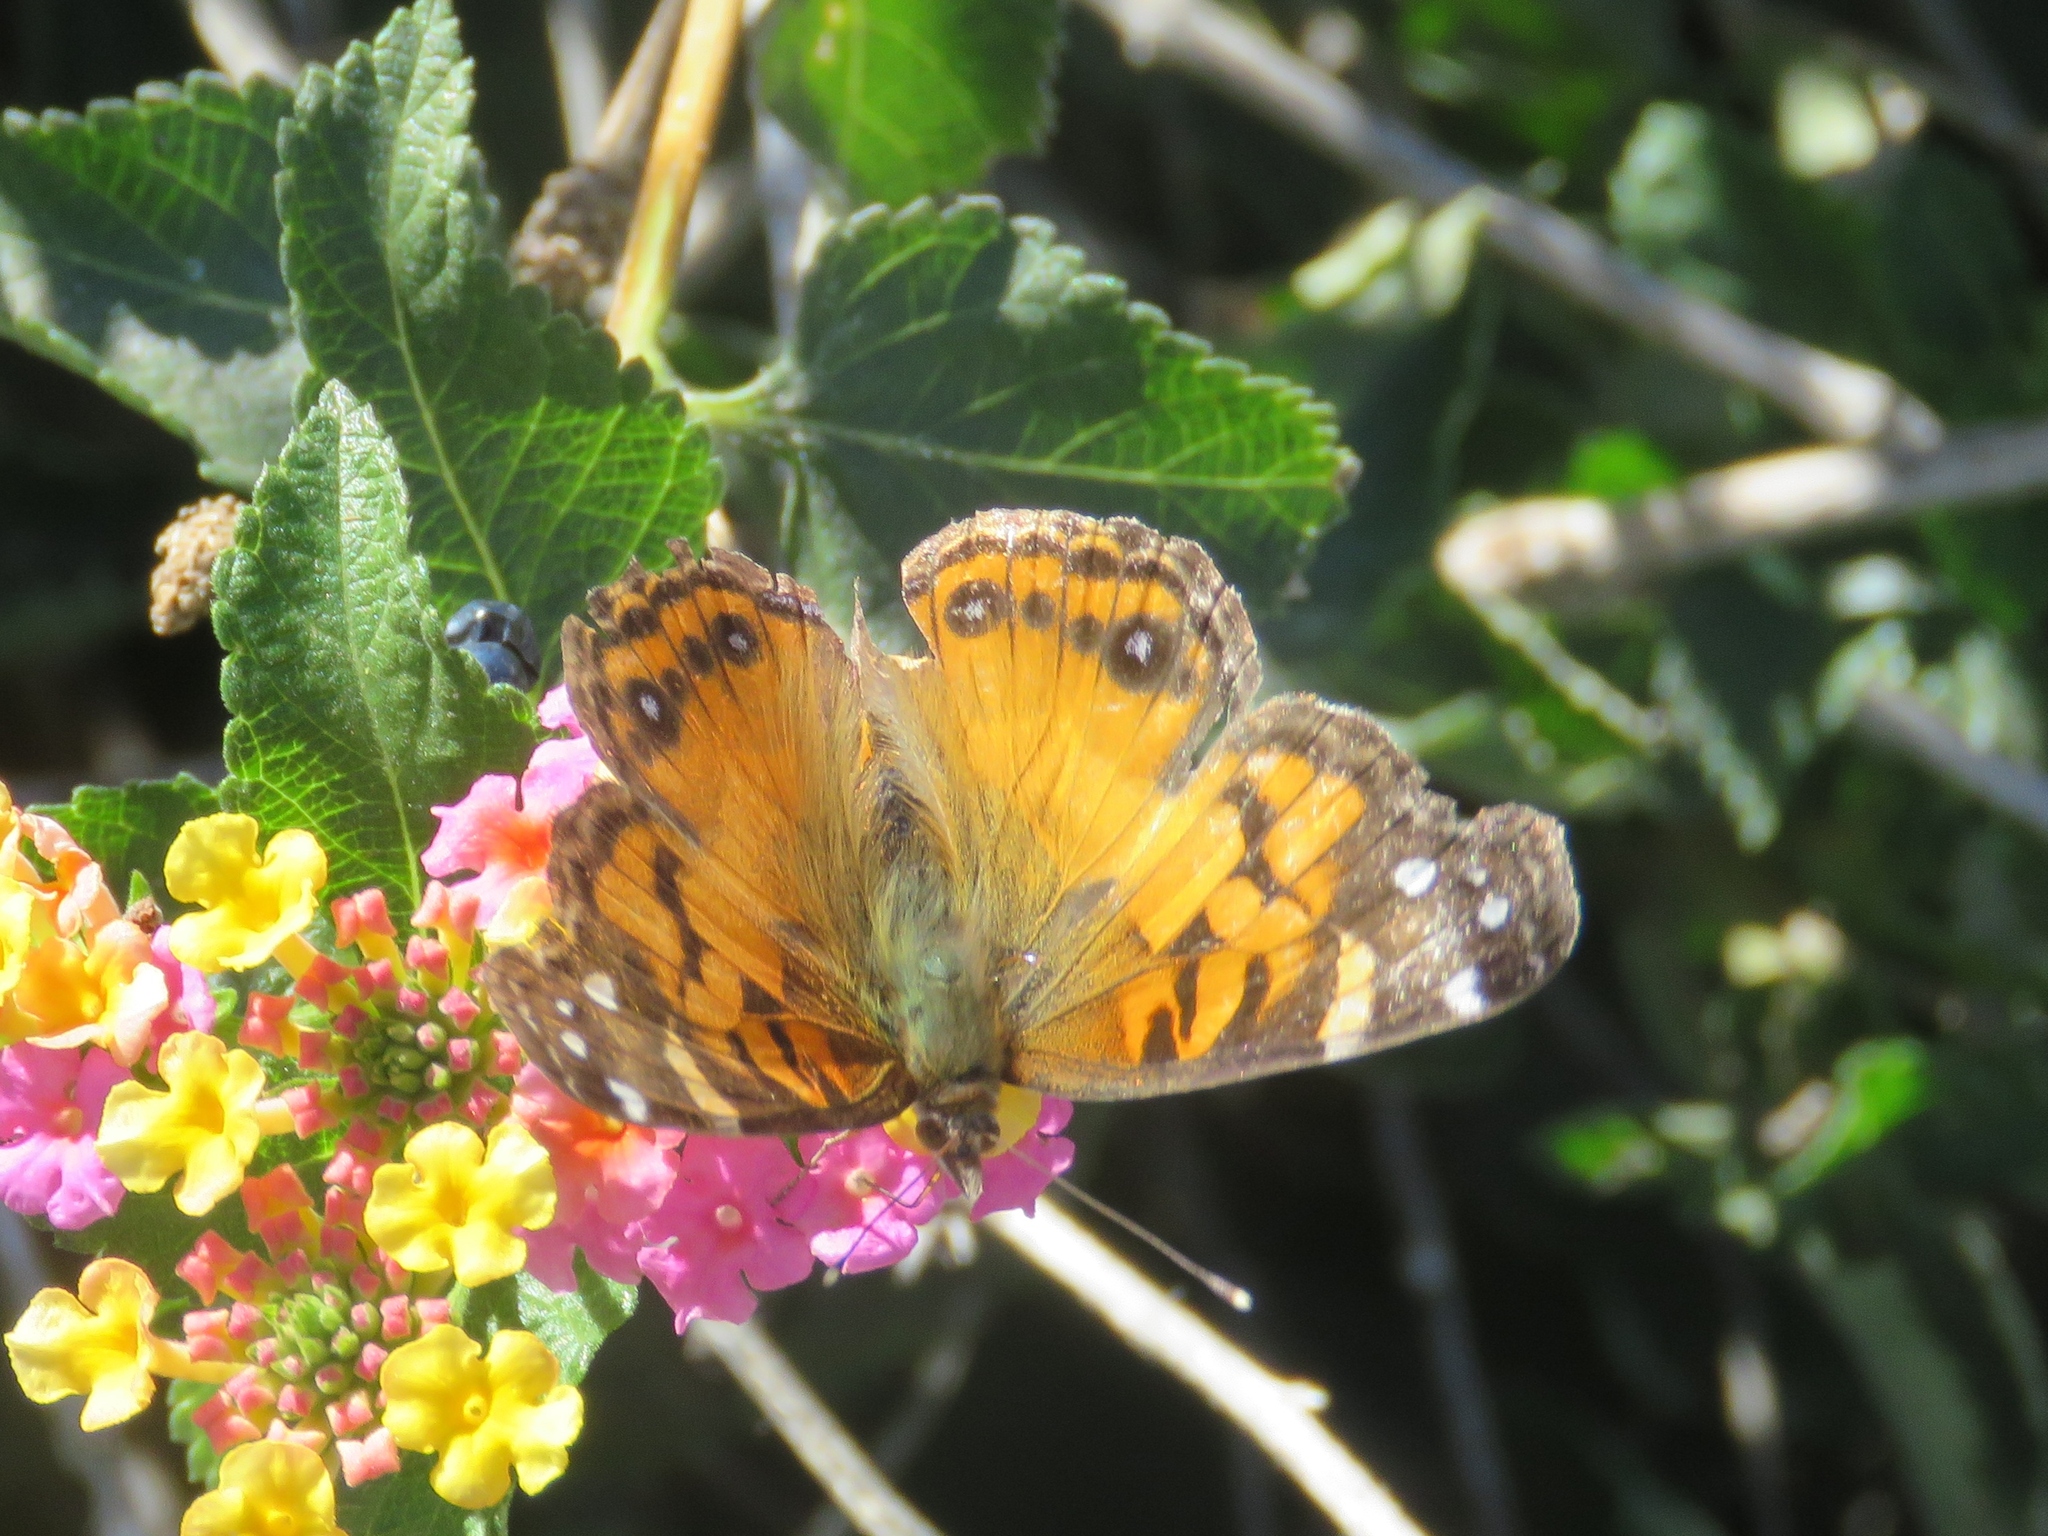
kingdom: Animalia
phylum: Arthropoda
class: Insecta
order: Lepidoptera
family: Nymphalidae
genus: Vanessa
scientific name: Vanessa virginiensis
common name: American lady
